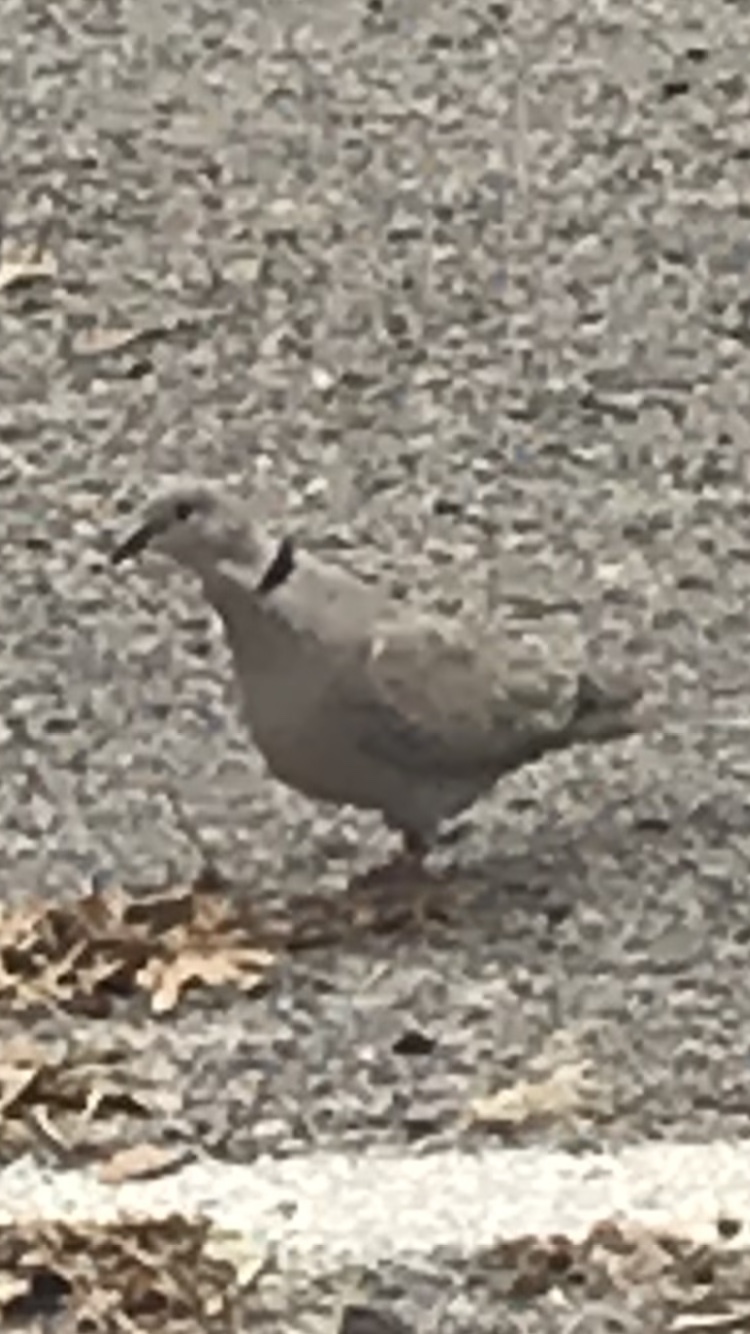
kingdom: Animalia
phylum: Chordata
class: Aves
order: Columbiformes
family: Columbidae
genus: Streptopelia
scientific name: Streptopelia decaocto
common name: Eurasian collared dove
